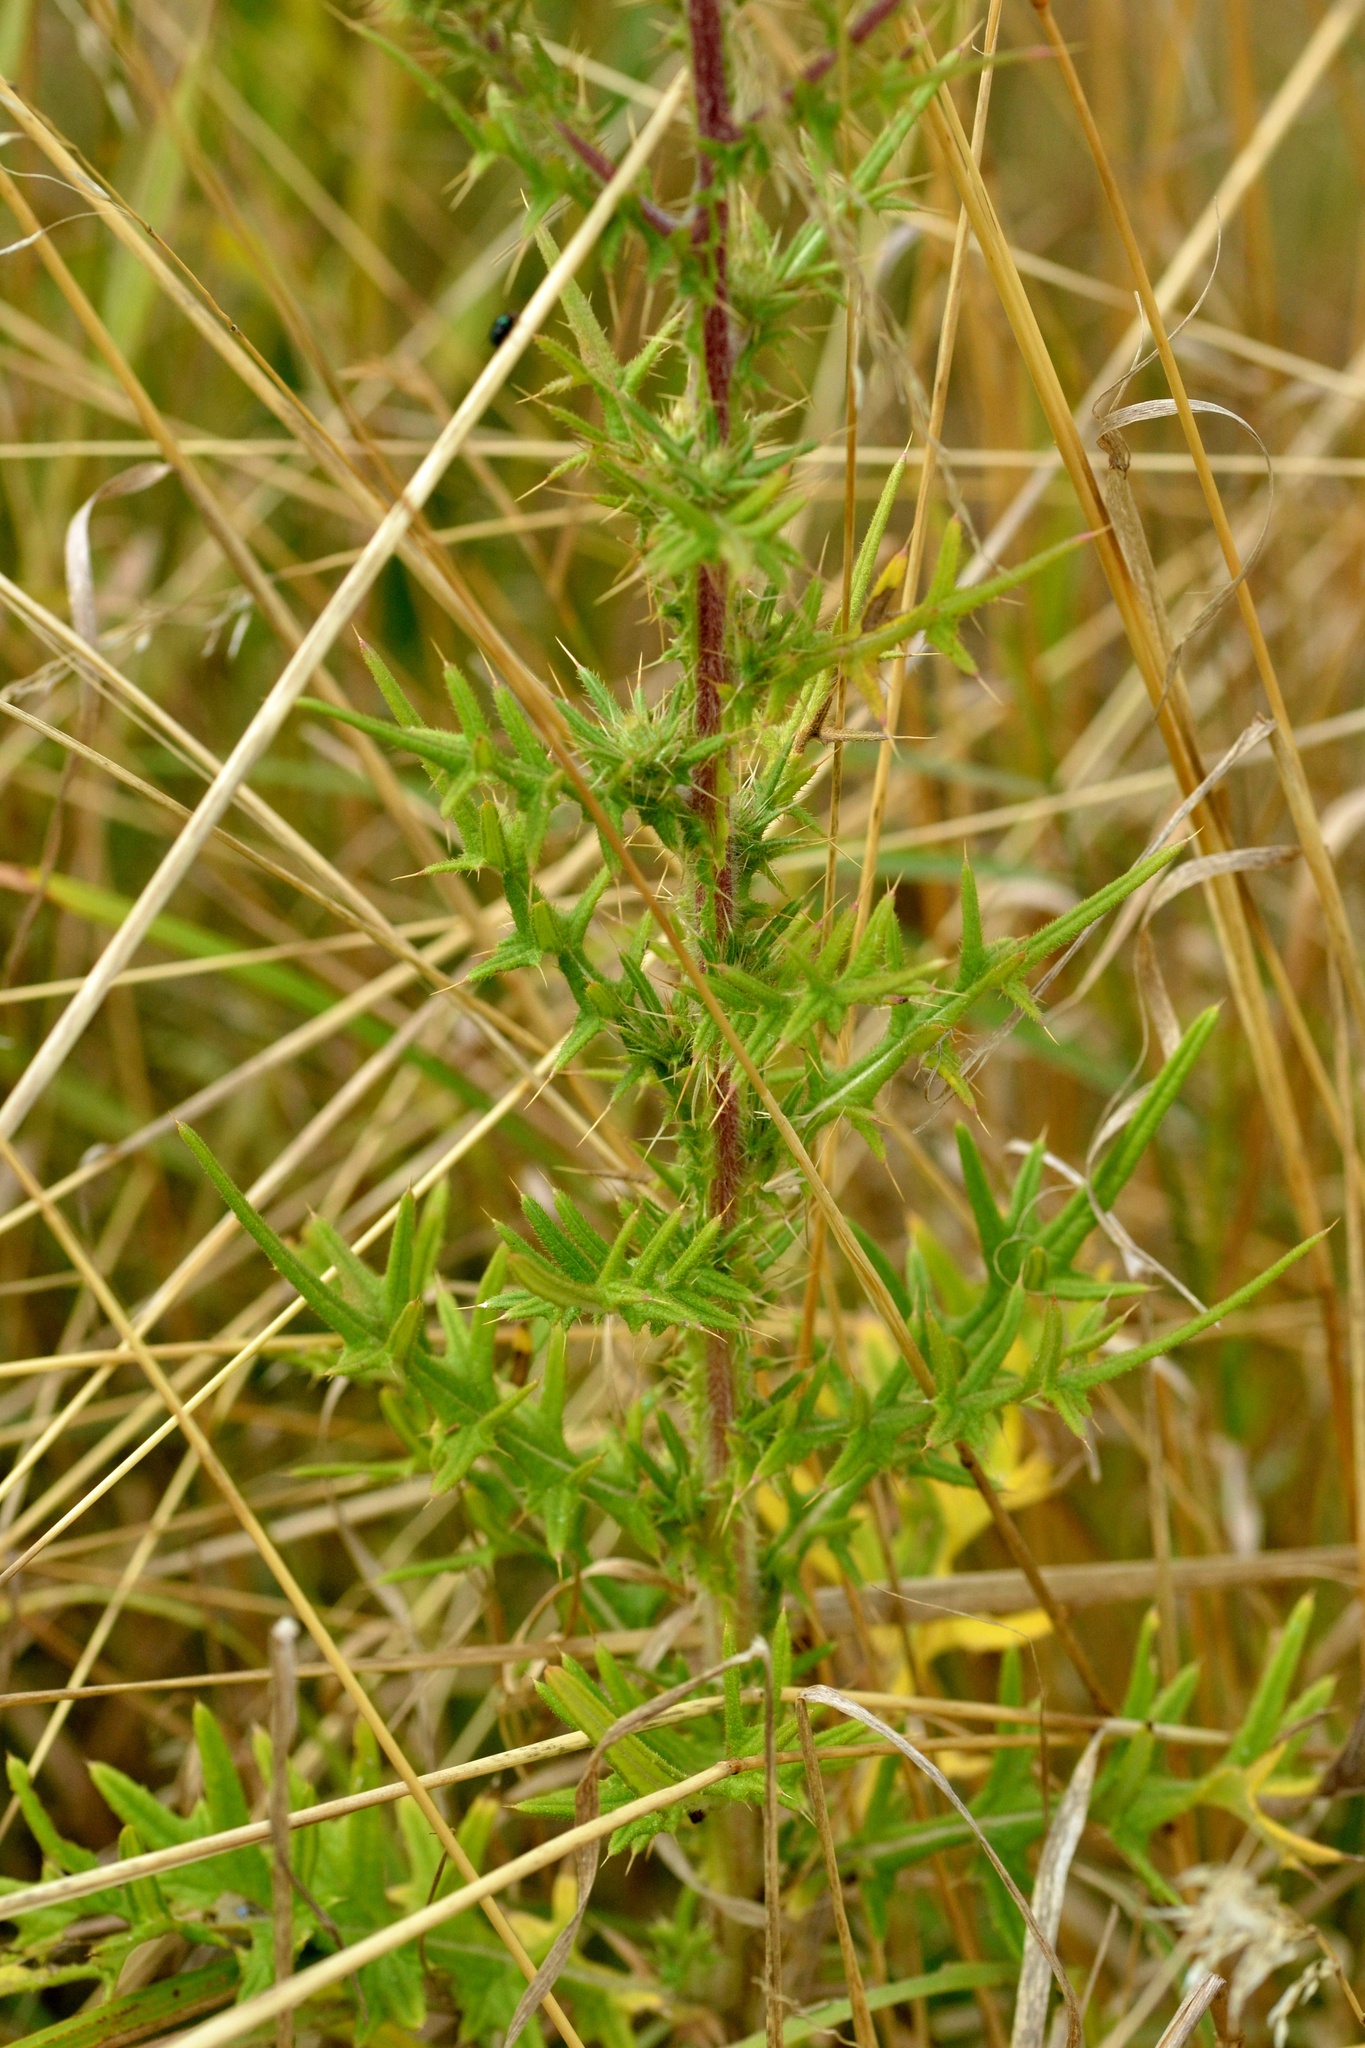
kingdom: Plantae
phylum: Tracheophyta
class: Magnoliopsida
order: Asterales
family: Asteraceae
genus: Cirsium
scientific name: Cirsium vulgare
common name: Bull thistle
